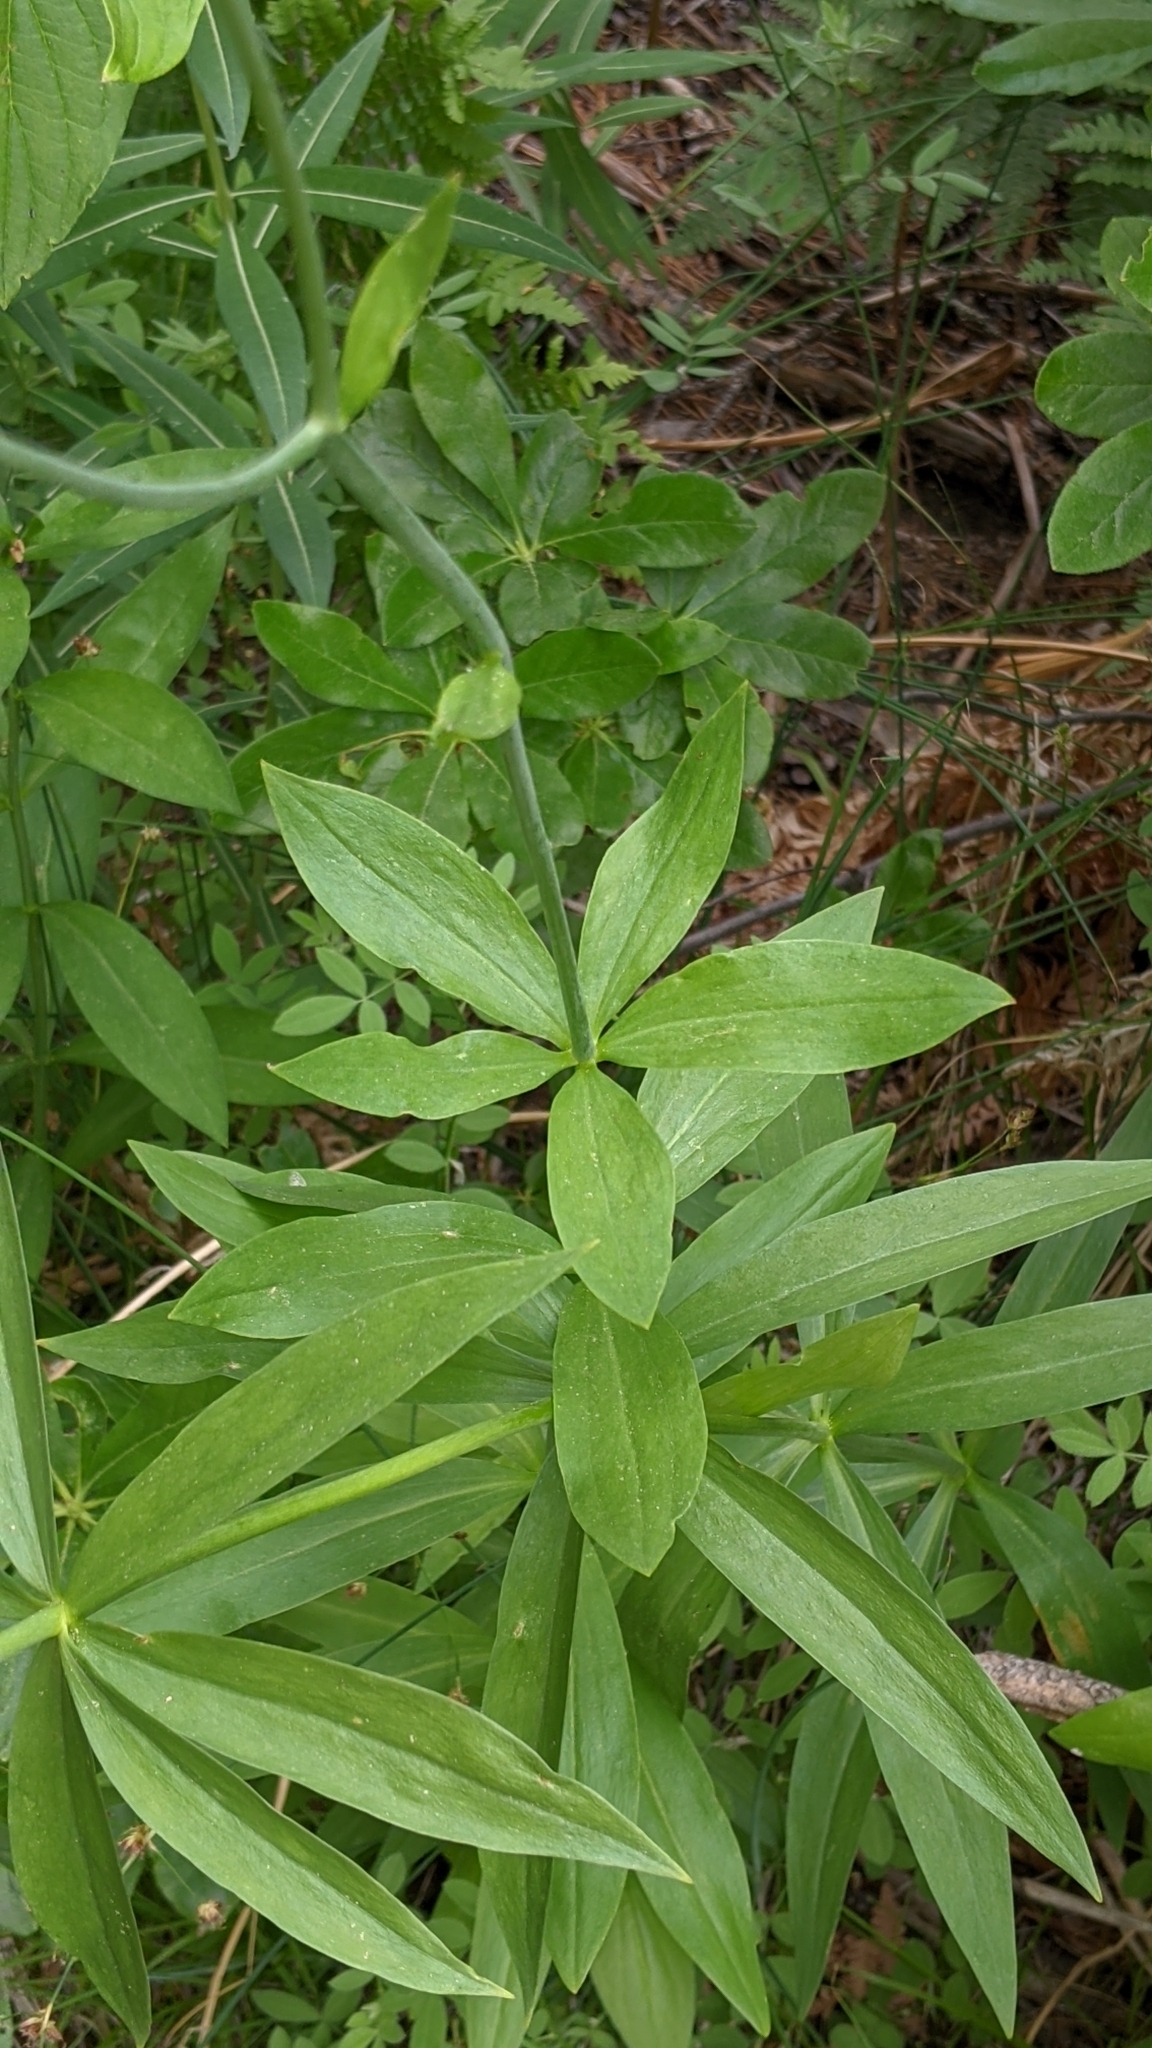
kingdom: Plantae
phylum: Tracheophyta
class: Liliopsida
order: Liliales
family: Liliaceae
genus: Lilium
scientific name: Lilium kelleyanum
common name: Kelley's lily
